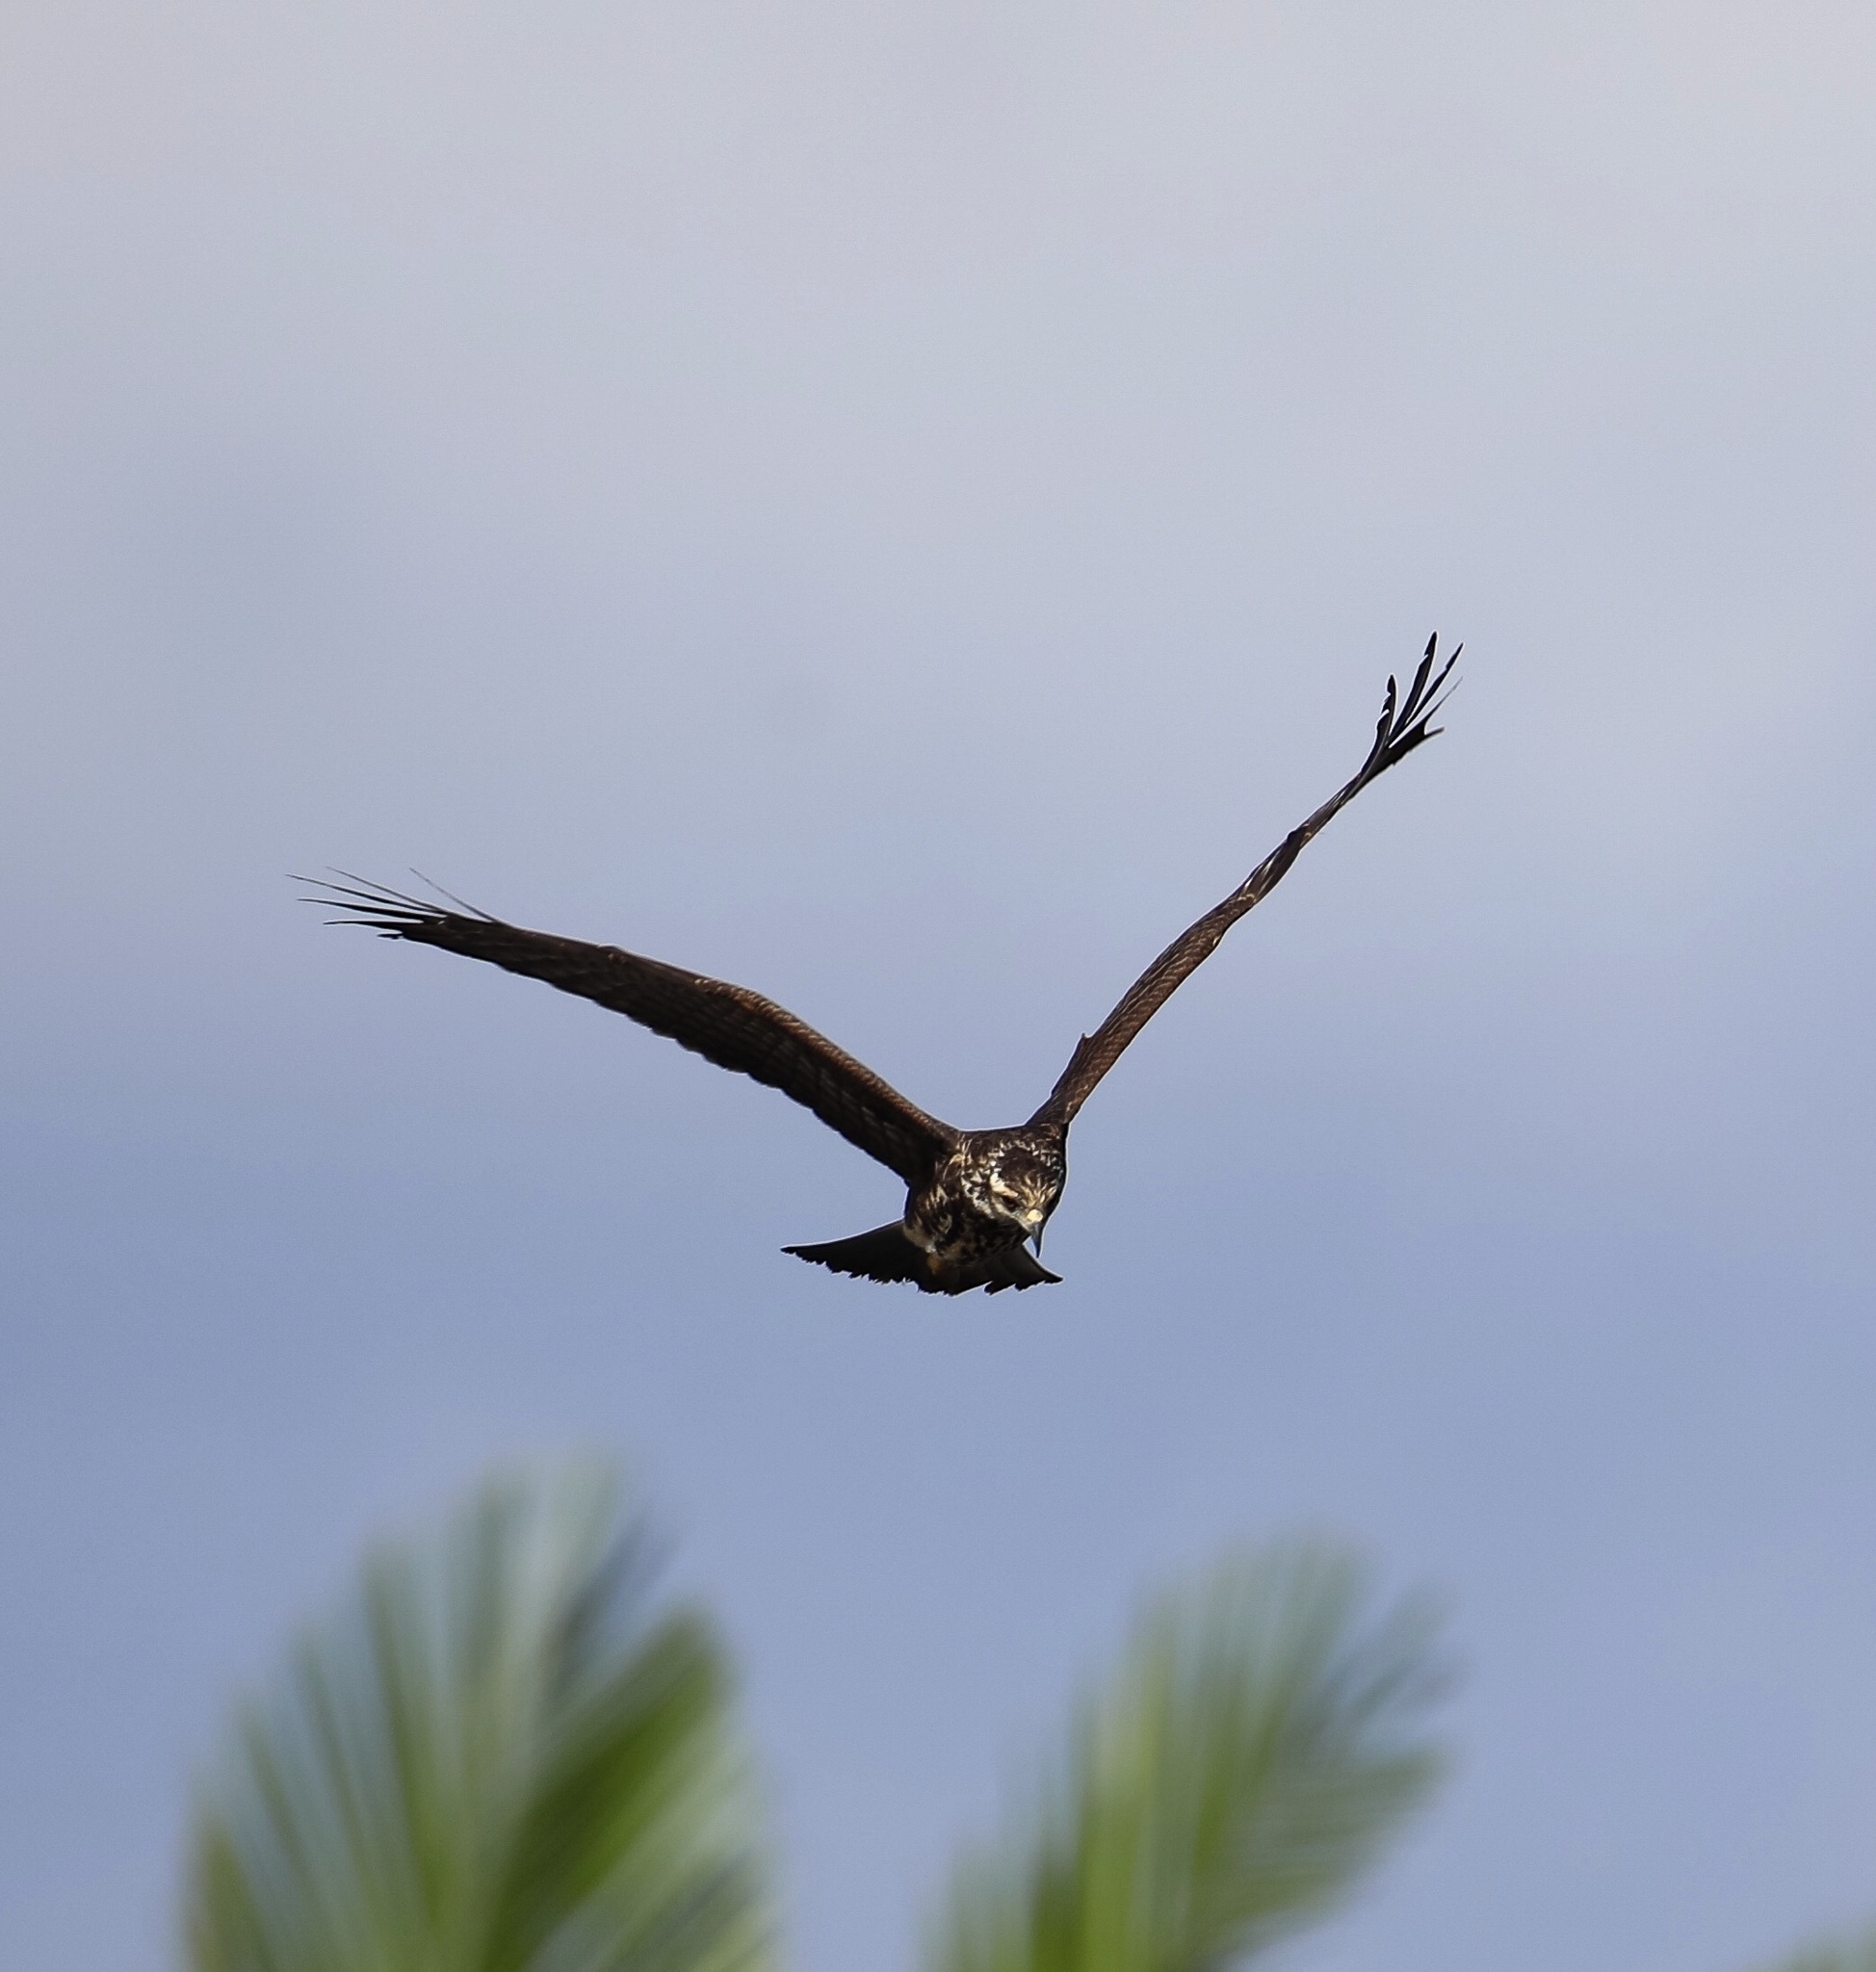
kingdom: Animalia
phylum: Chordata
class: Aves
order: Accipitriformes
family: Accipitridae
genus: Rostrhamus
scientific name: Rostrhamus sociabilis
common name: Snail kite
